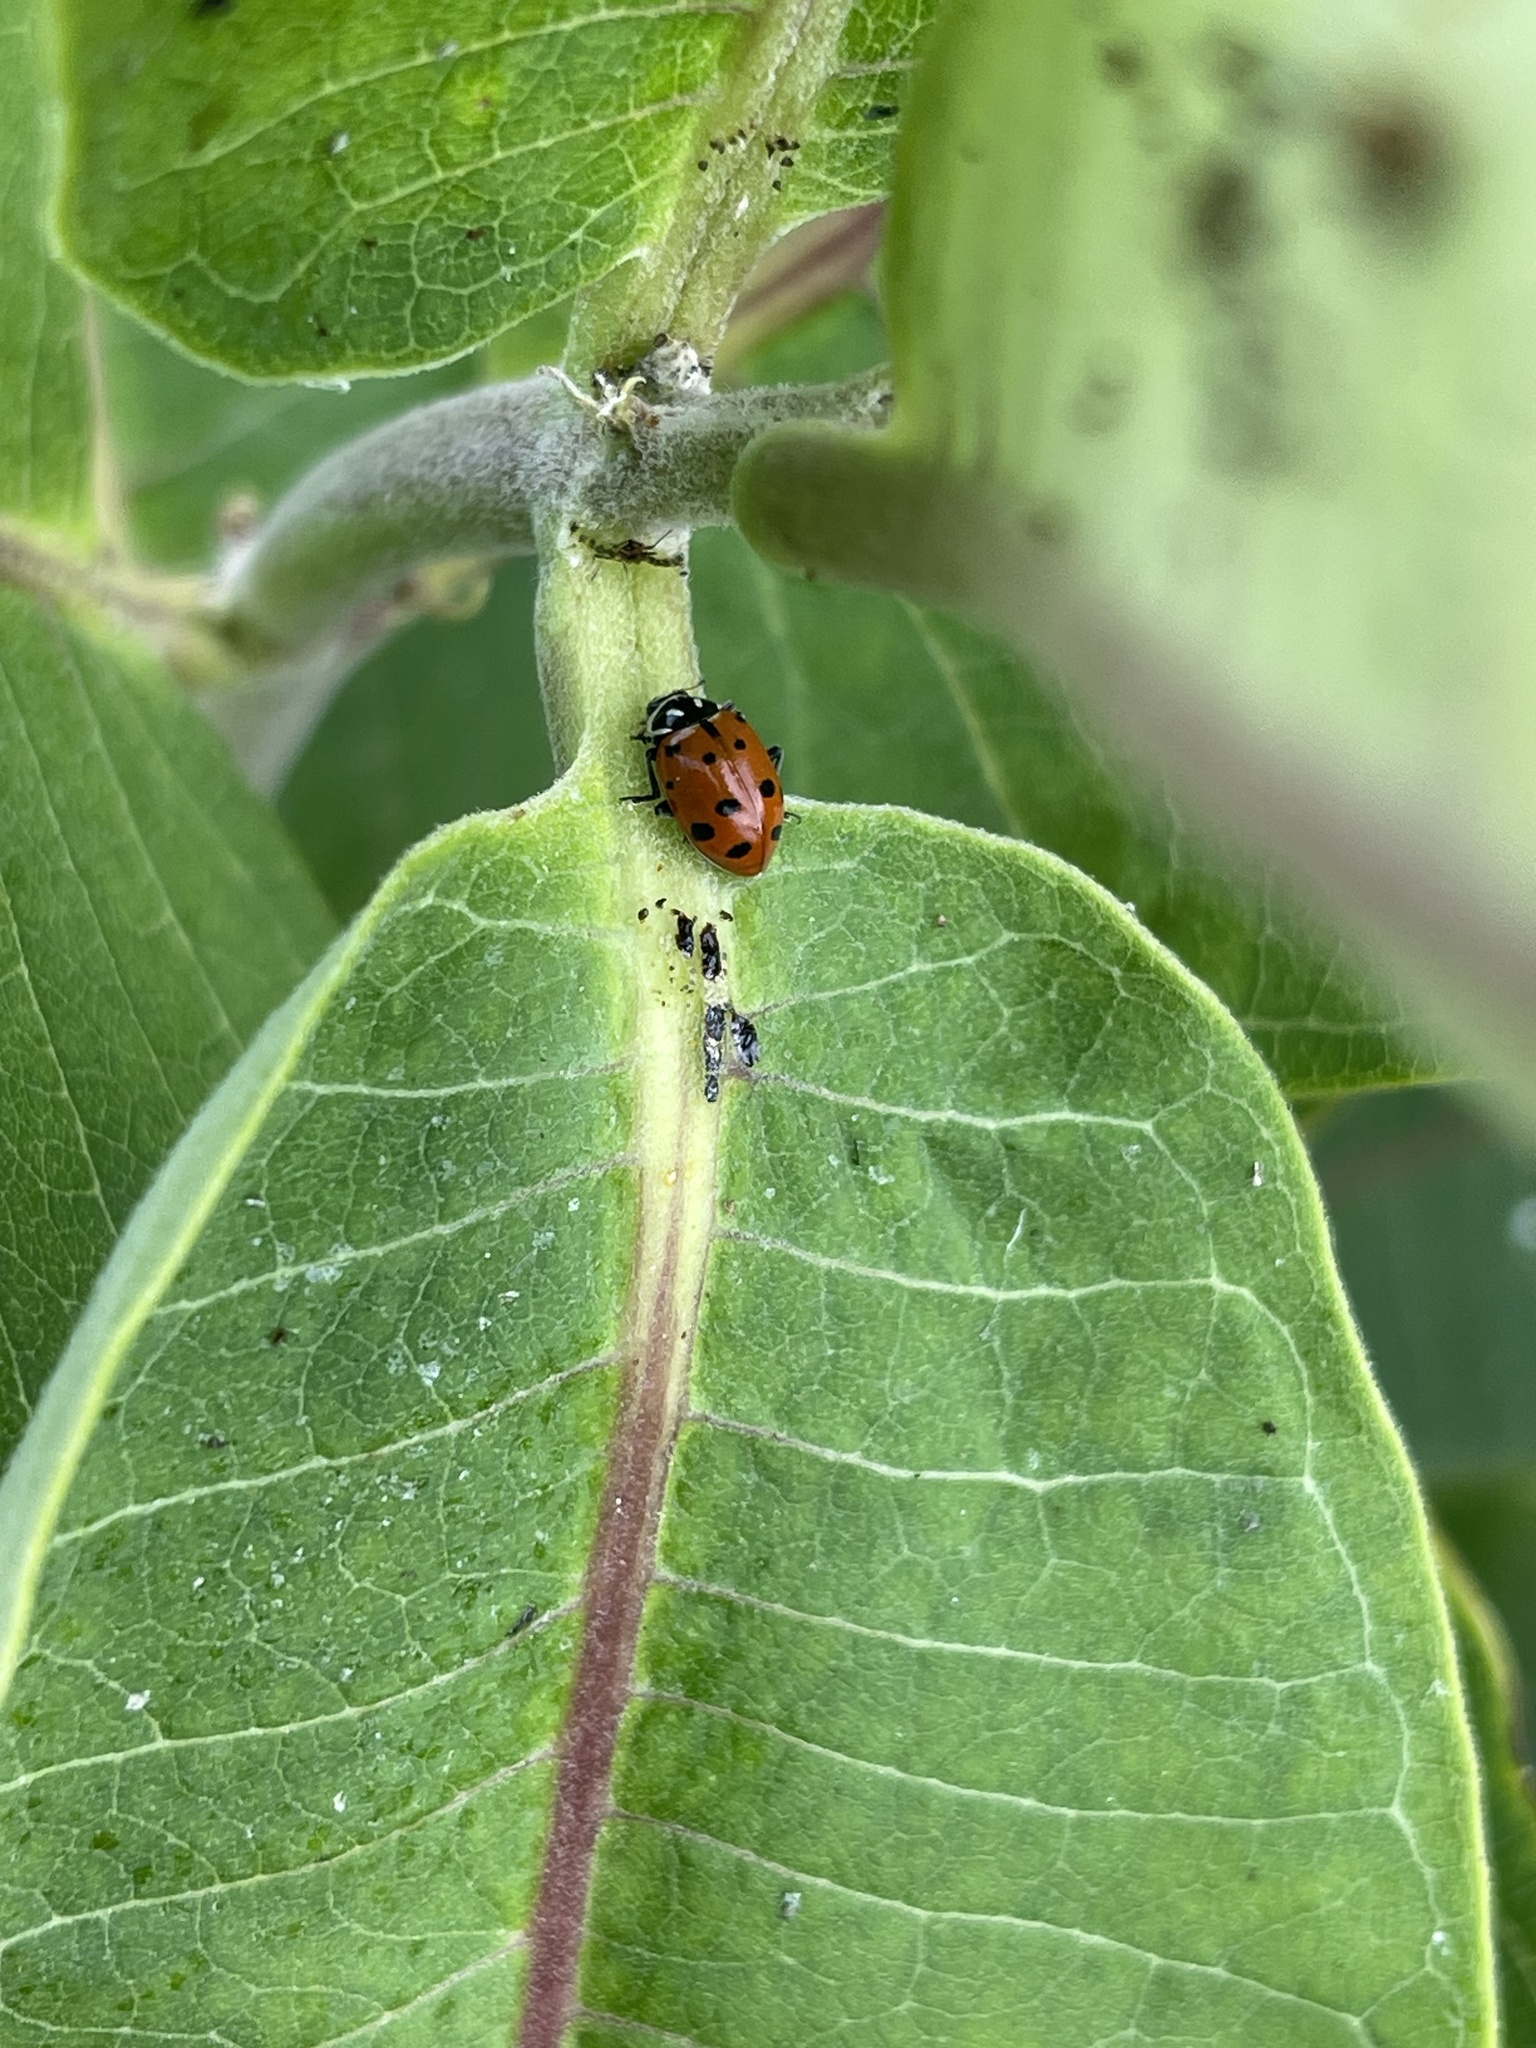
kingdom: Animalia
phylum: Arthropoda
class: Insecta
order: Coleoptera
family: Coccinellidae
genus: Hippodamia
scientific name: Hippodamia variegata
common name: Ladybird beetle
